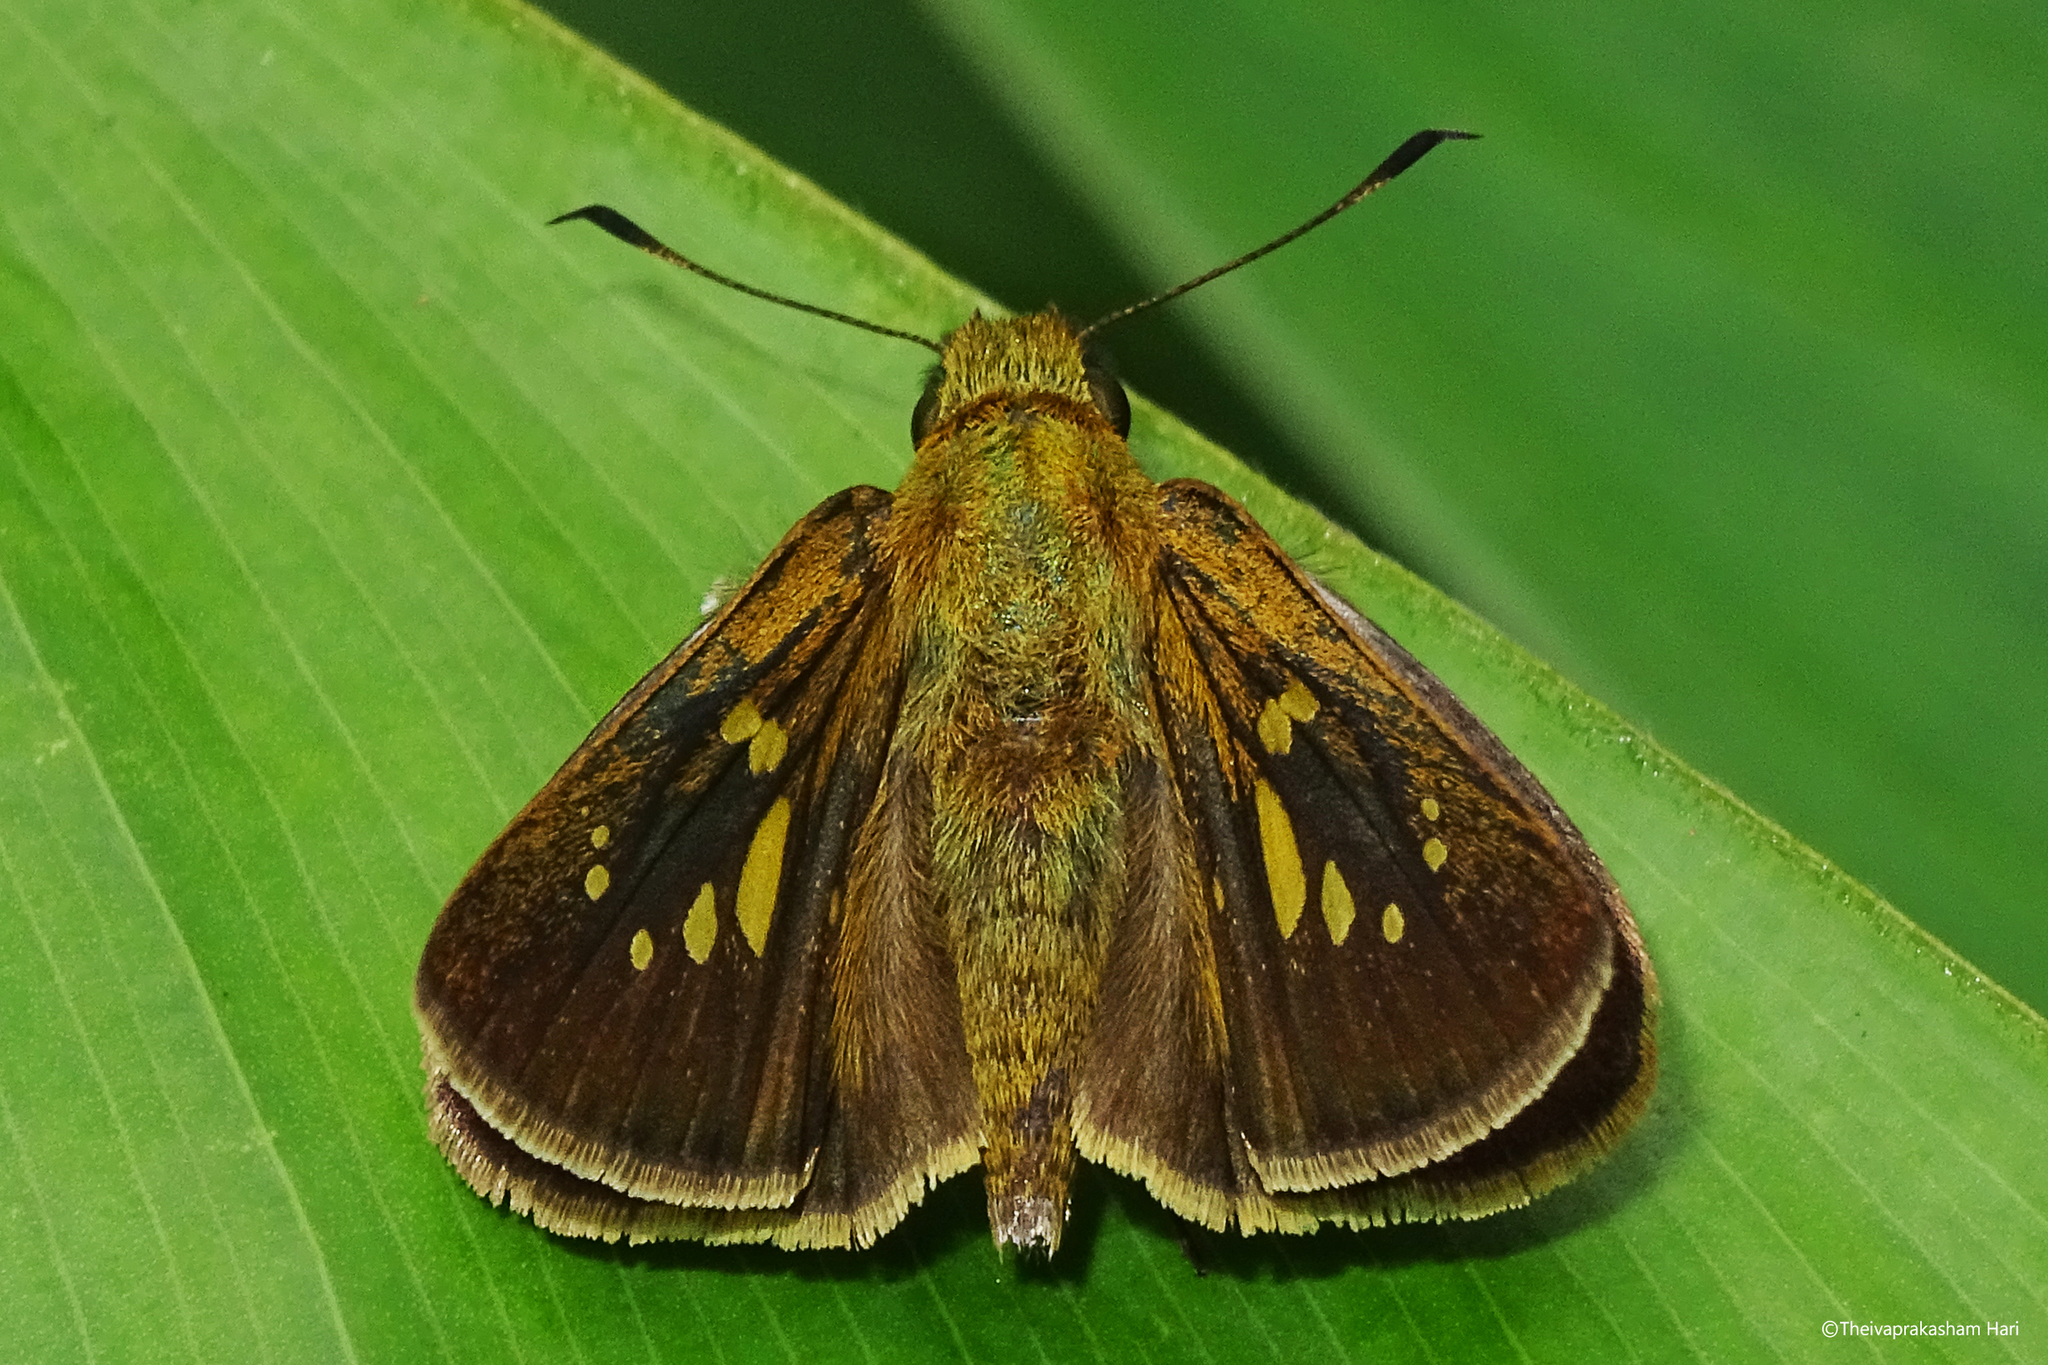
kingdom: Animalia
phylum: Arthropoda
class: Insecta
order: Lepidoptera
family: Hesperiidae
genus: Polytremis
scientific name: Polytremis lubricans
